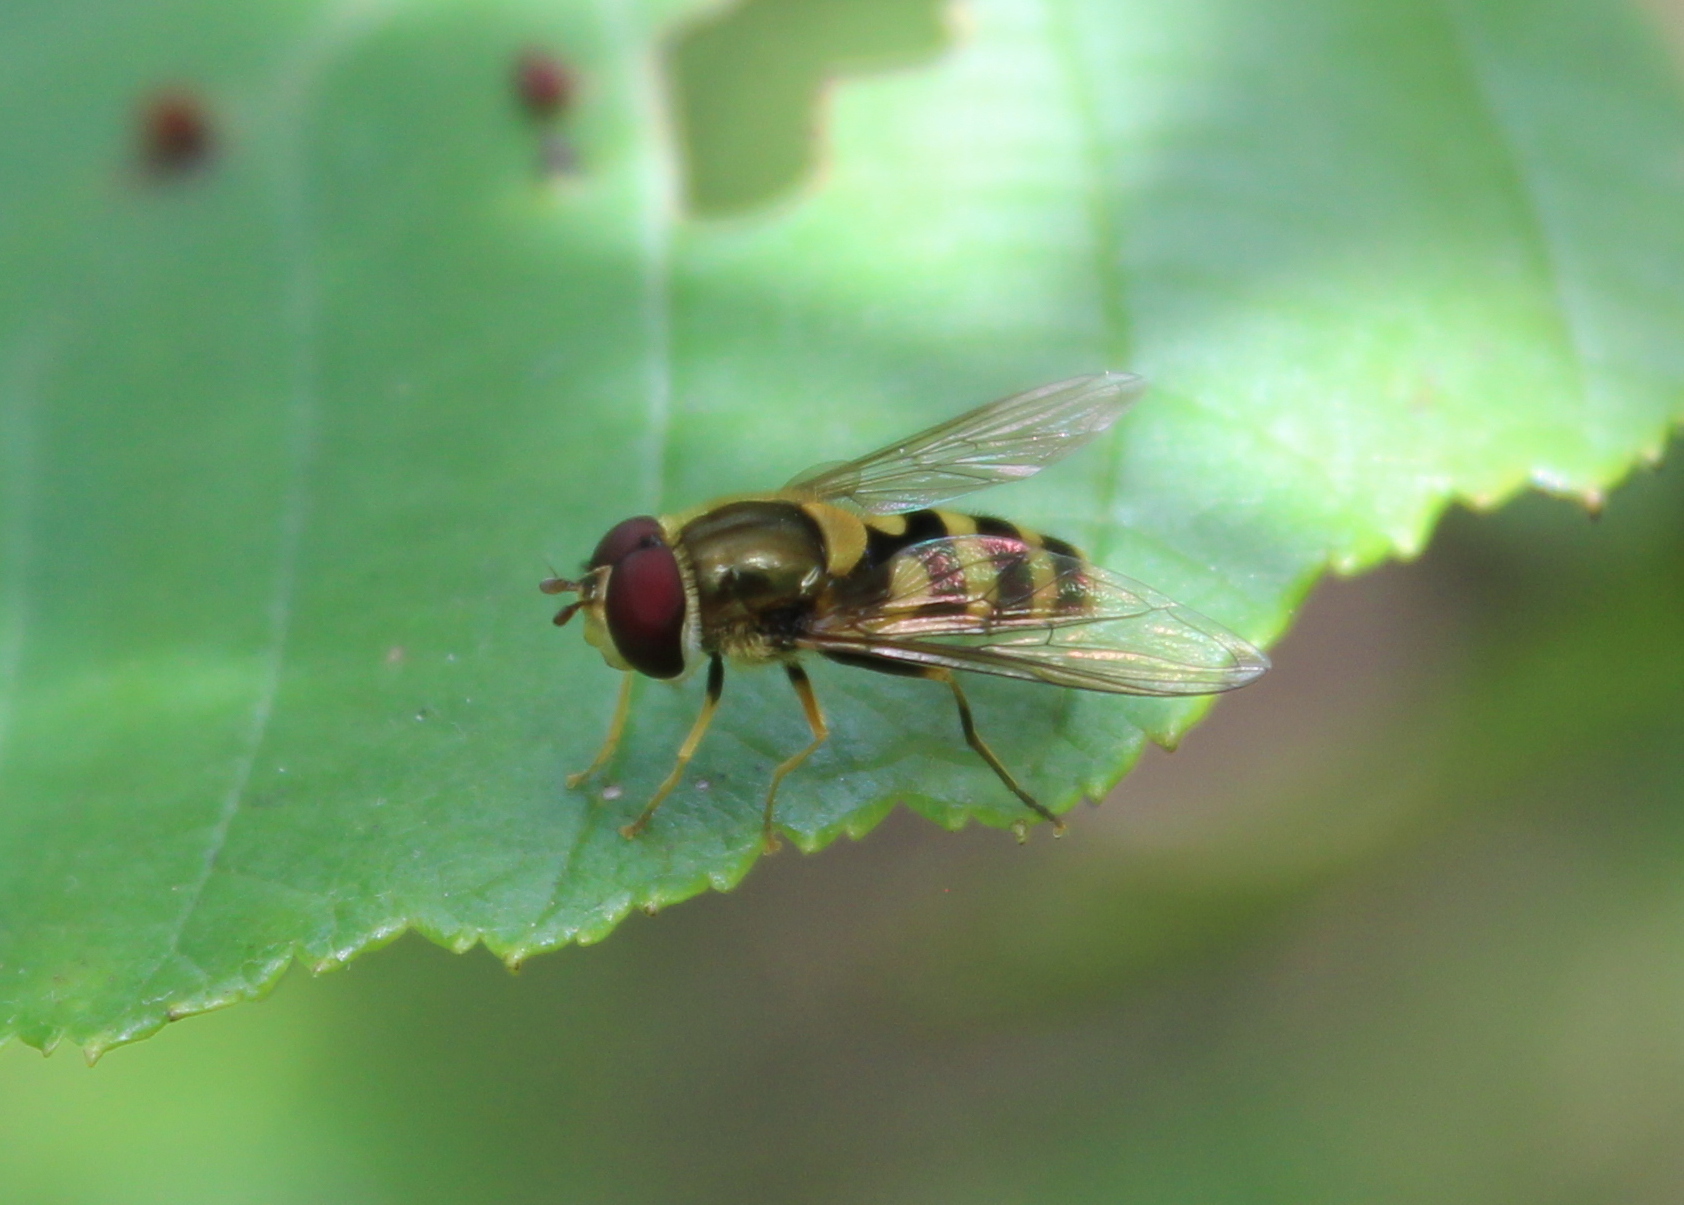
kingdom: Animalia
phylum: Arthropoda
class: Insecta
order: Diptera
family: Syrphidae
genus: Syrphus
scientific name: Syrphus
